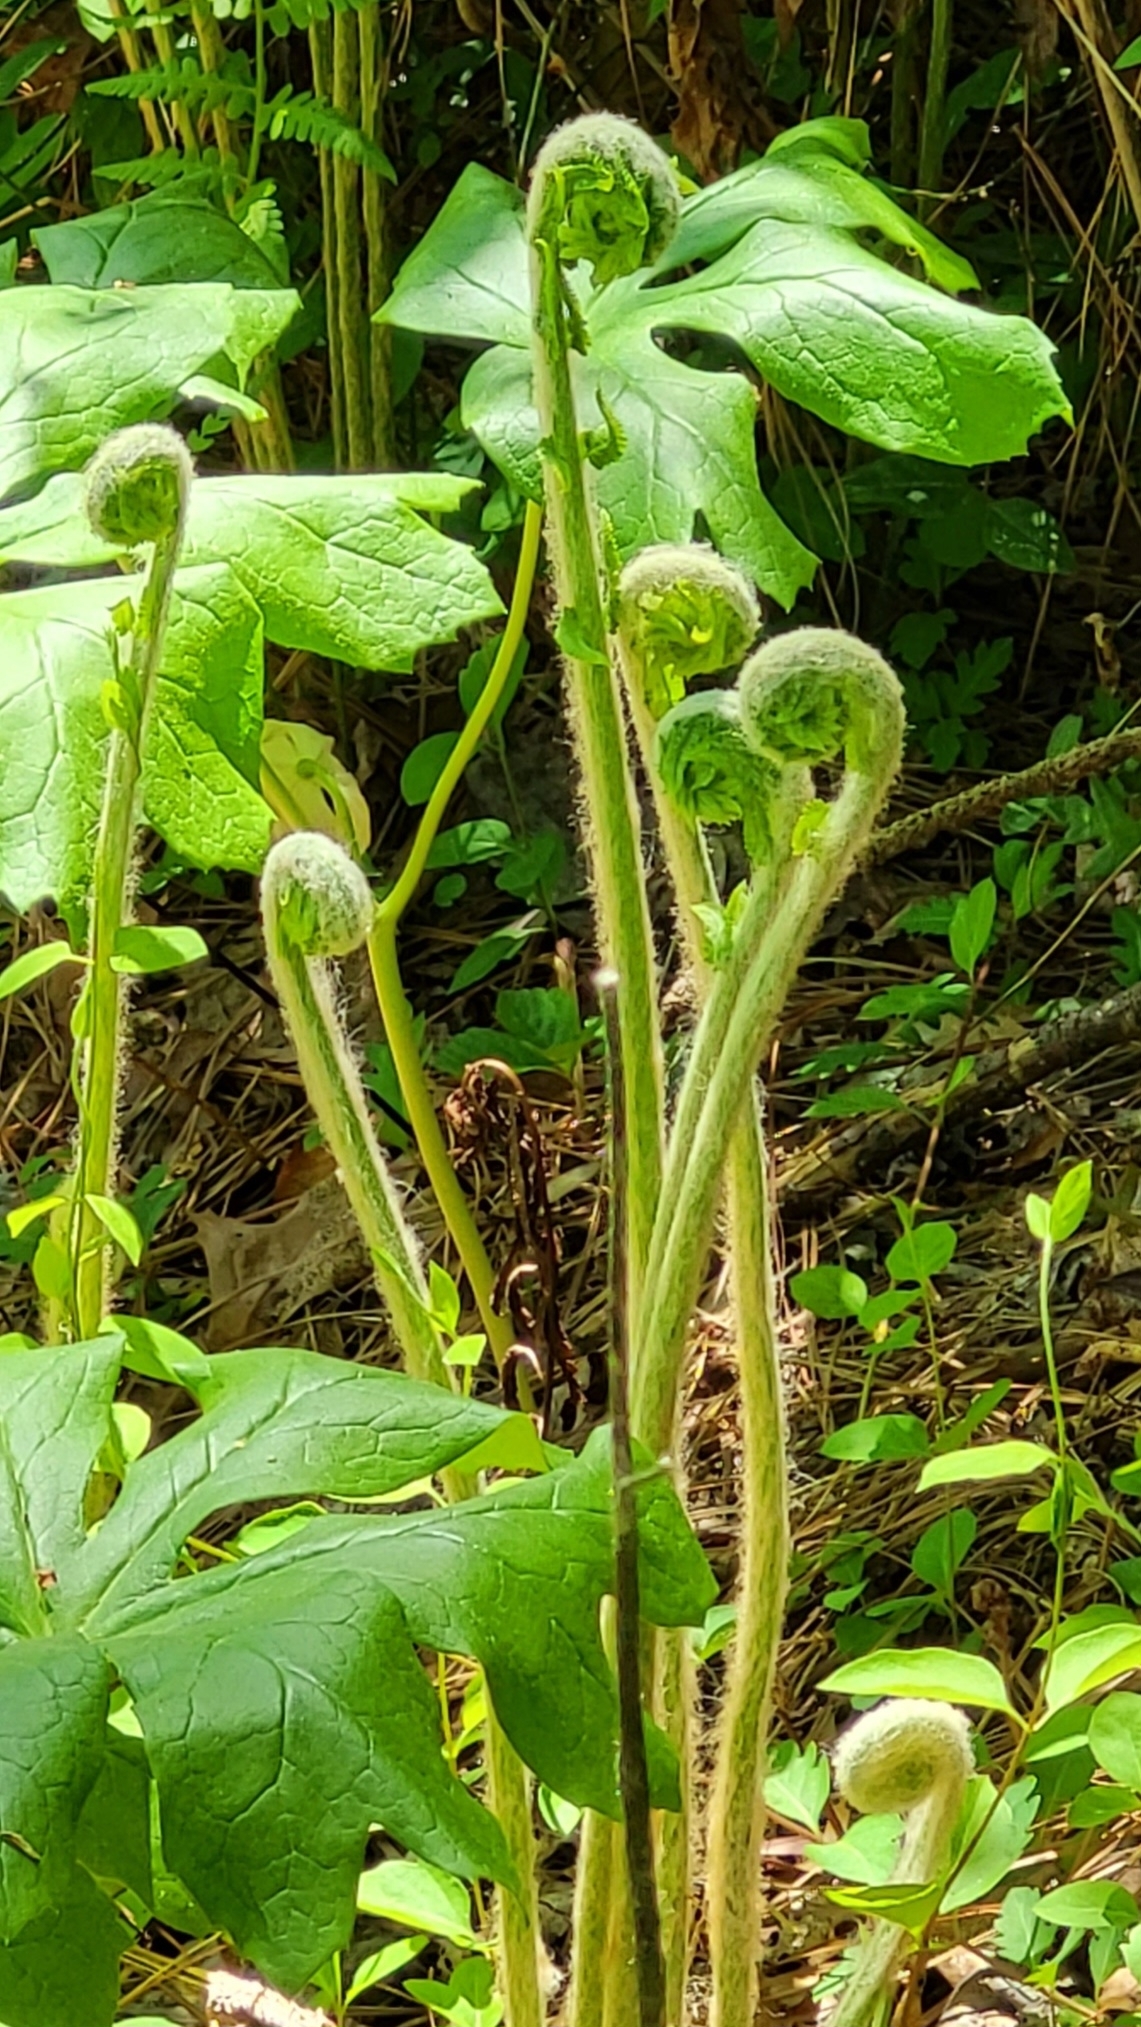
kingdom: Plantae
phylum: Tracheophyta
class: Polypodiopsida
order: Osmundales
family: Osmundaceae
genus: Osmundastrum
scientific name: Osmundastrum cinnamomeum
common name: Cinnamon fern
